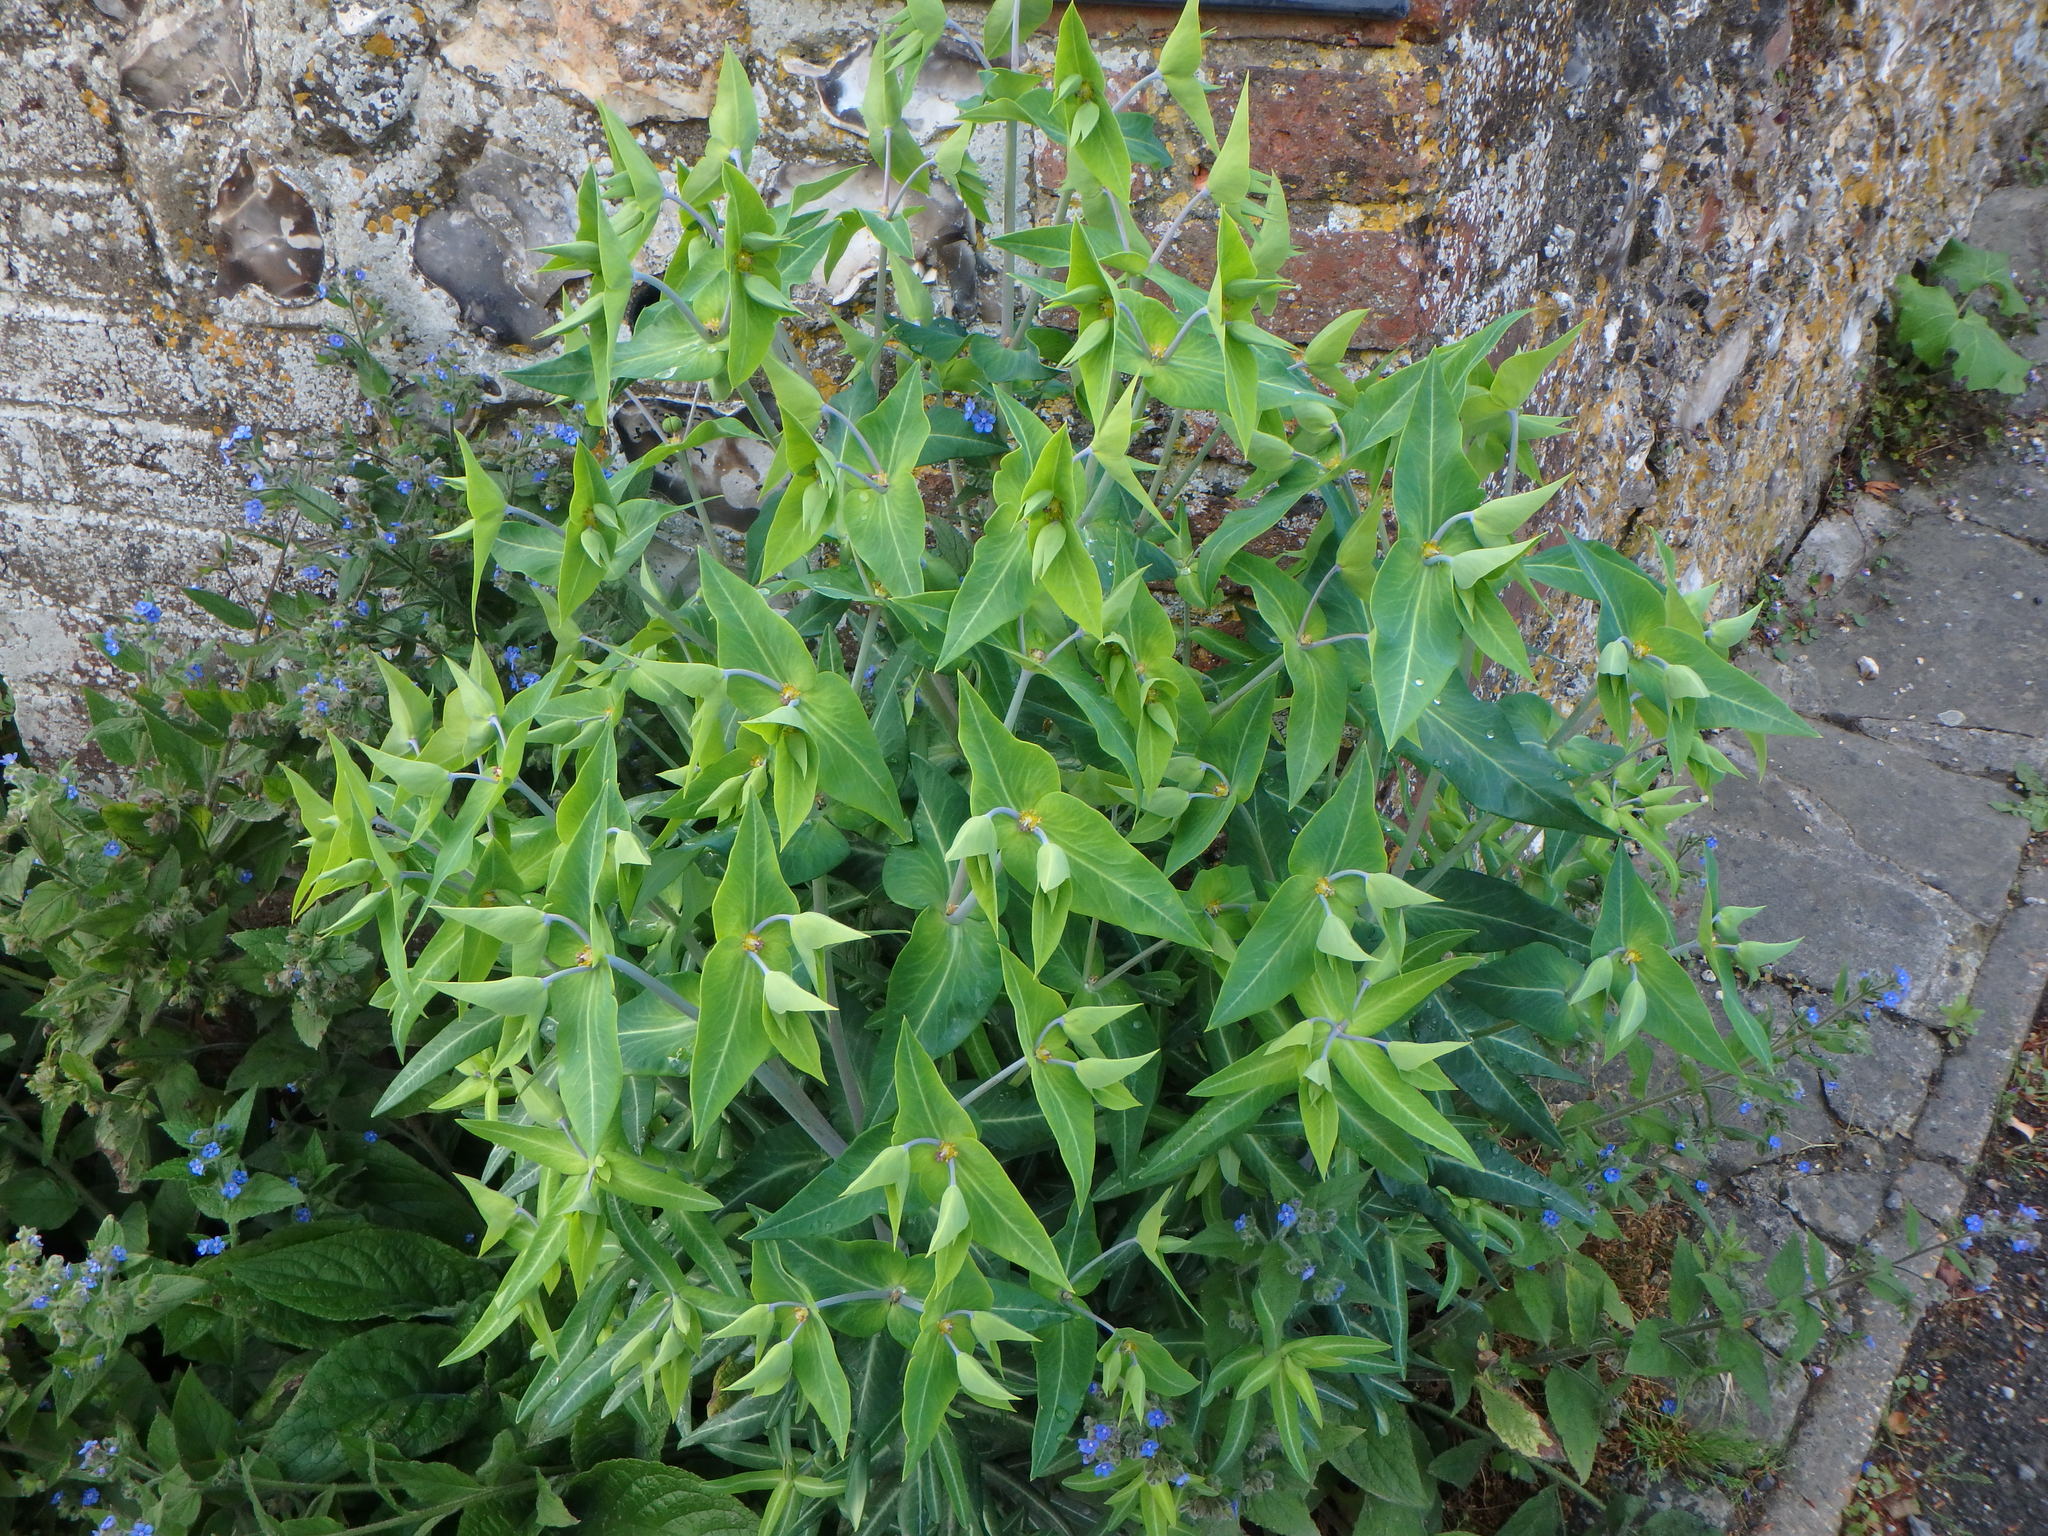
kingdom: Plantae
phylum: Tracheophyta
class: Magnoliopsida
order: Malpighiales
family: Euphorbiaceae
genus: Euphorbia
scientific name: Euphorbia lathyris
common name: Caper spurge
